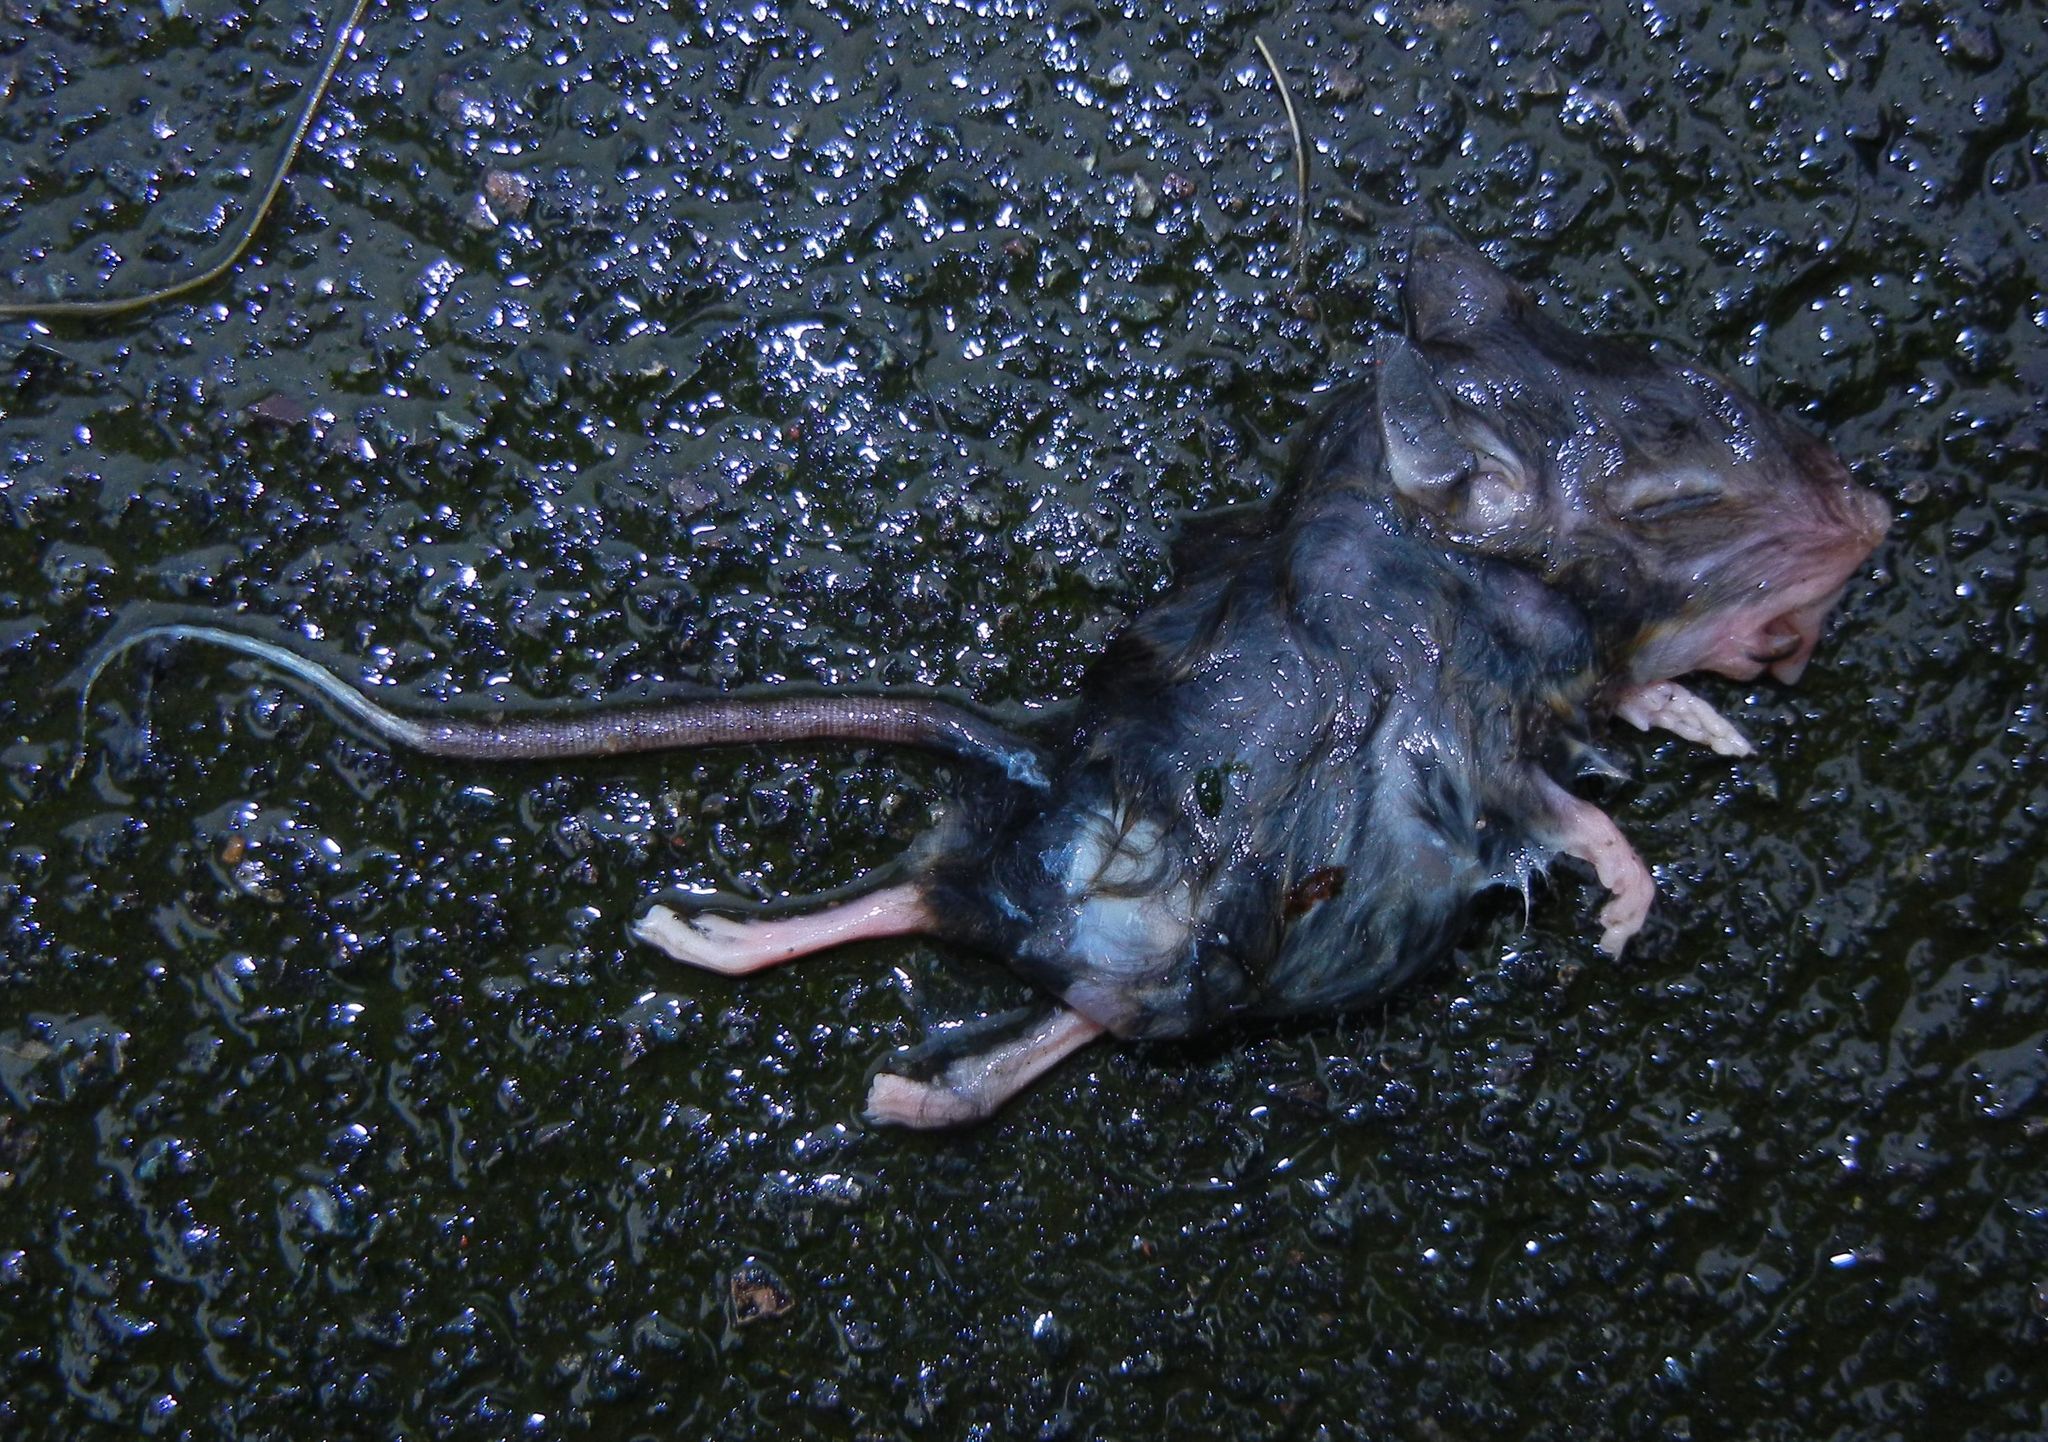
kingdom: Animalia
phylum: Chordata
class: Mammalia
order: Rodentia
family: Muridae
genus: Mus
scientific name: Mus musculus
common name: House mouse
